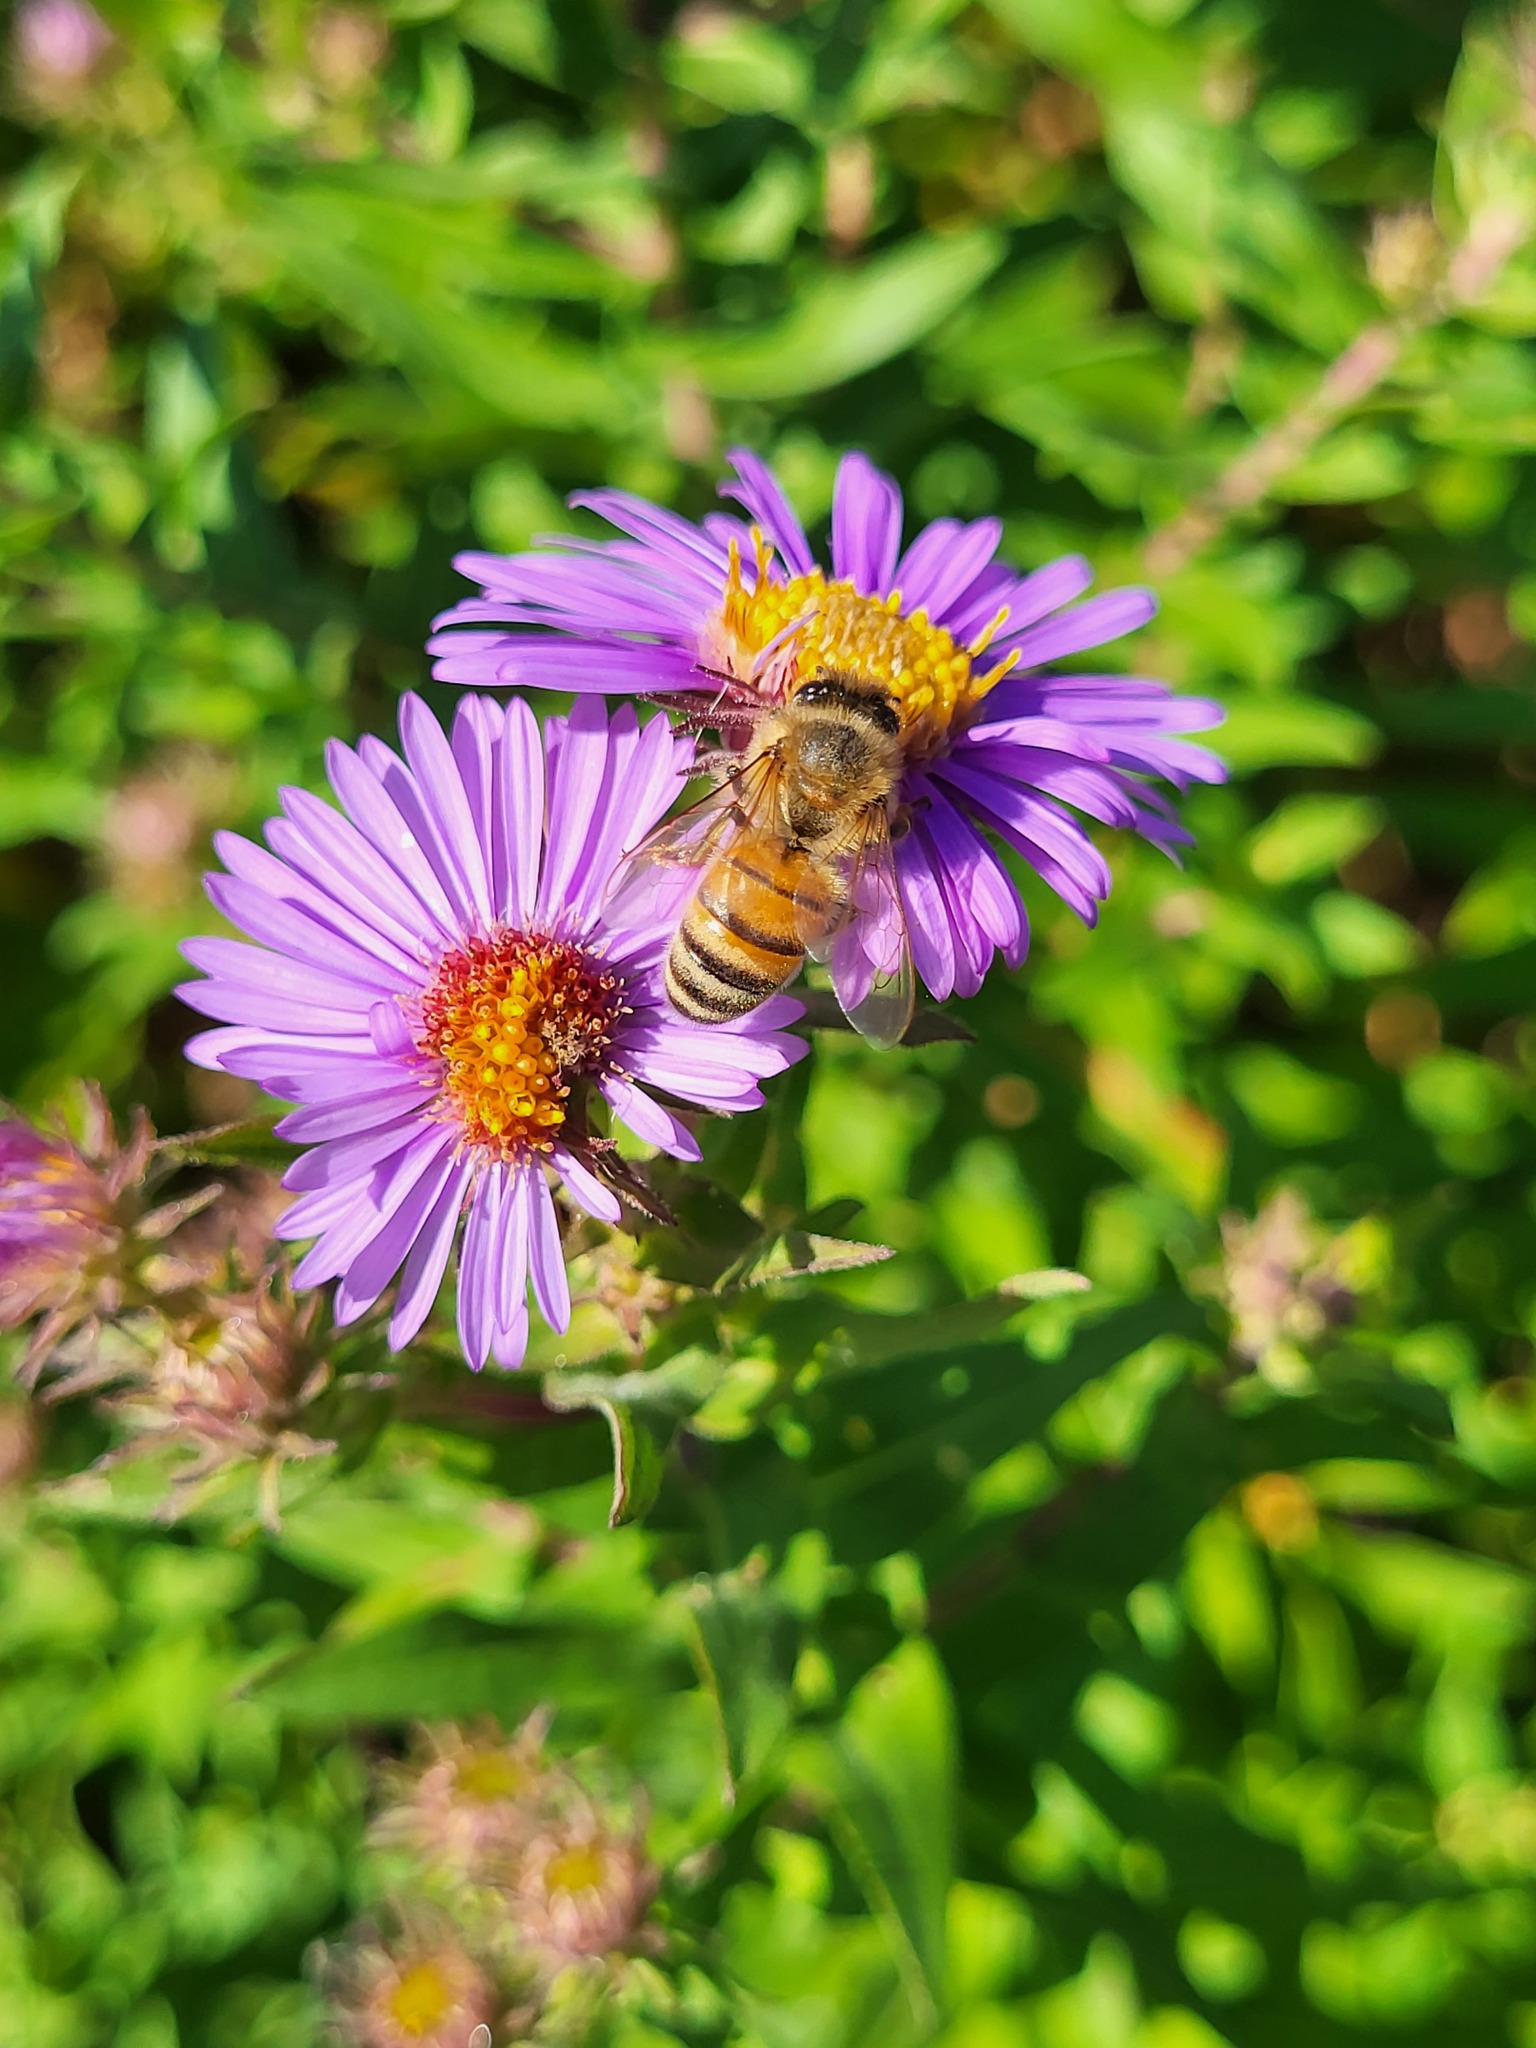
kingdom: Animalia
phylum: Arthropoda
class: Insecta
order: Hymenoptera
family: Apidae
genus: Apis
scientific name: Apis mellifera
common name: Honey bee
